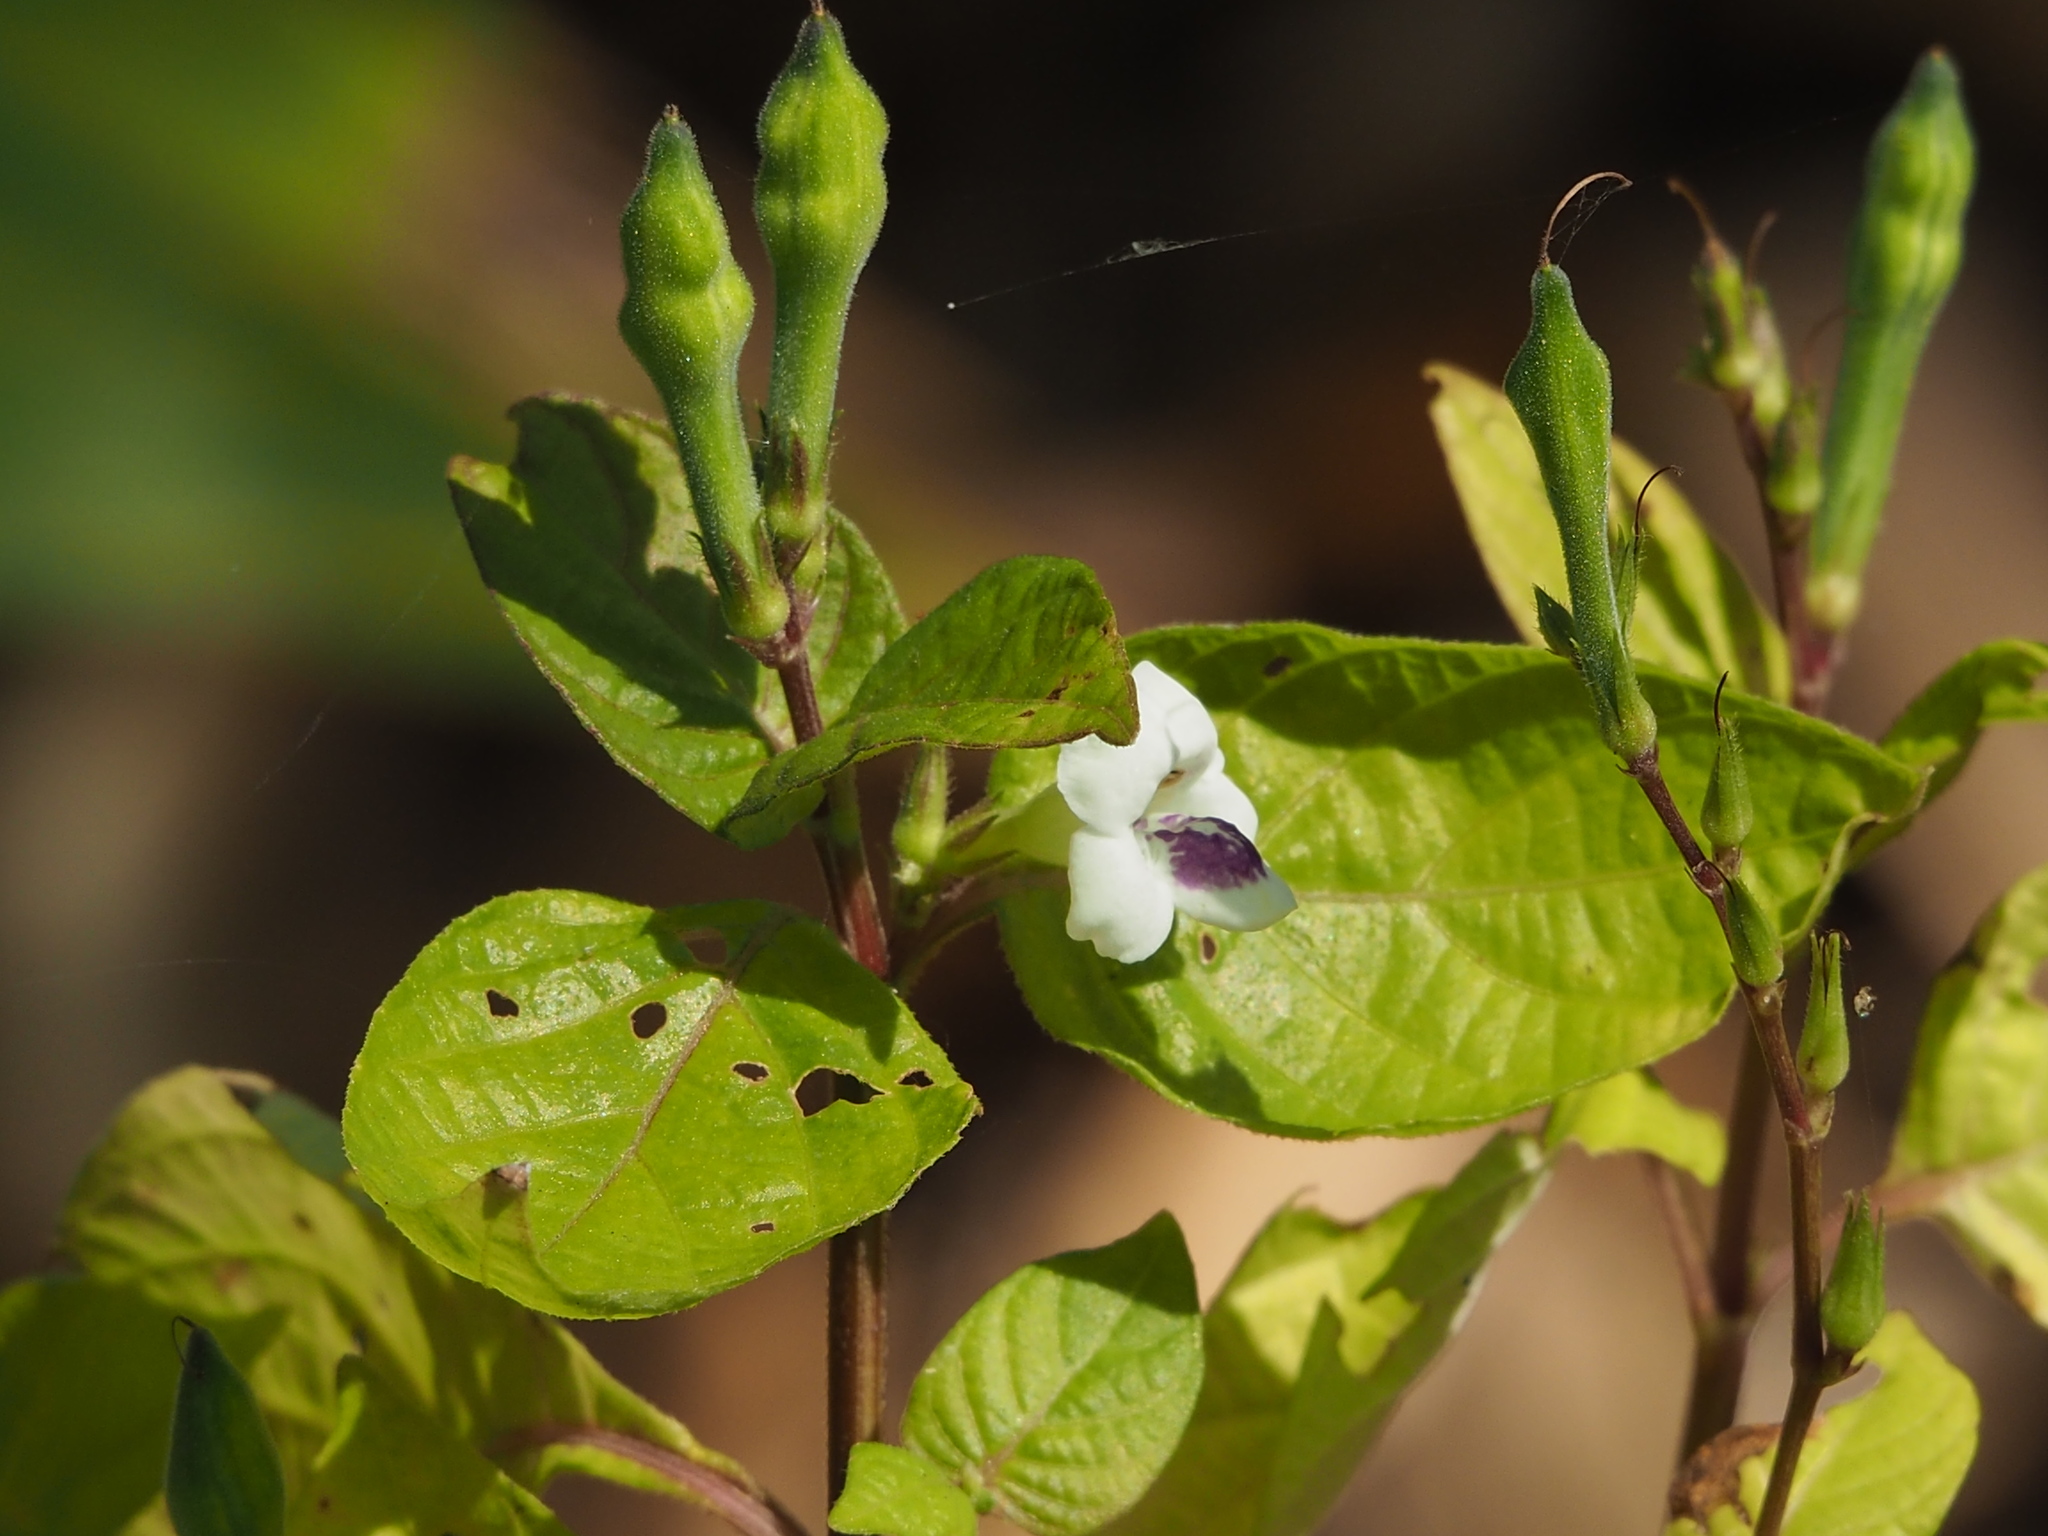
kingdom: Plantae
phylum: Tracheophyta
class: Magnoliopsida
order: Lamiales
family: Acanthaceae
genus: Asystasia
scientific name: Asystasia intrusa
